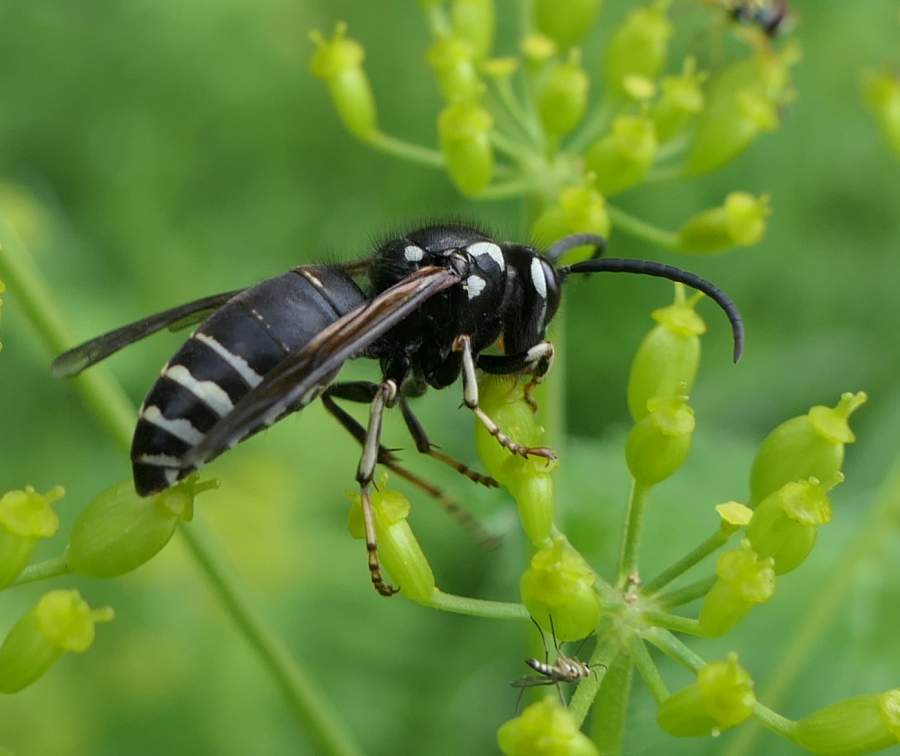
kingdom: Animalia
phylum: Arthropoda
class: Insecta
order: Hymenoptera
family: Vespidae
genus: Dolichovespula
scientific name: Dolichovespula adulterina
